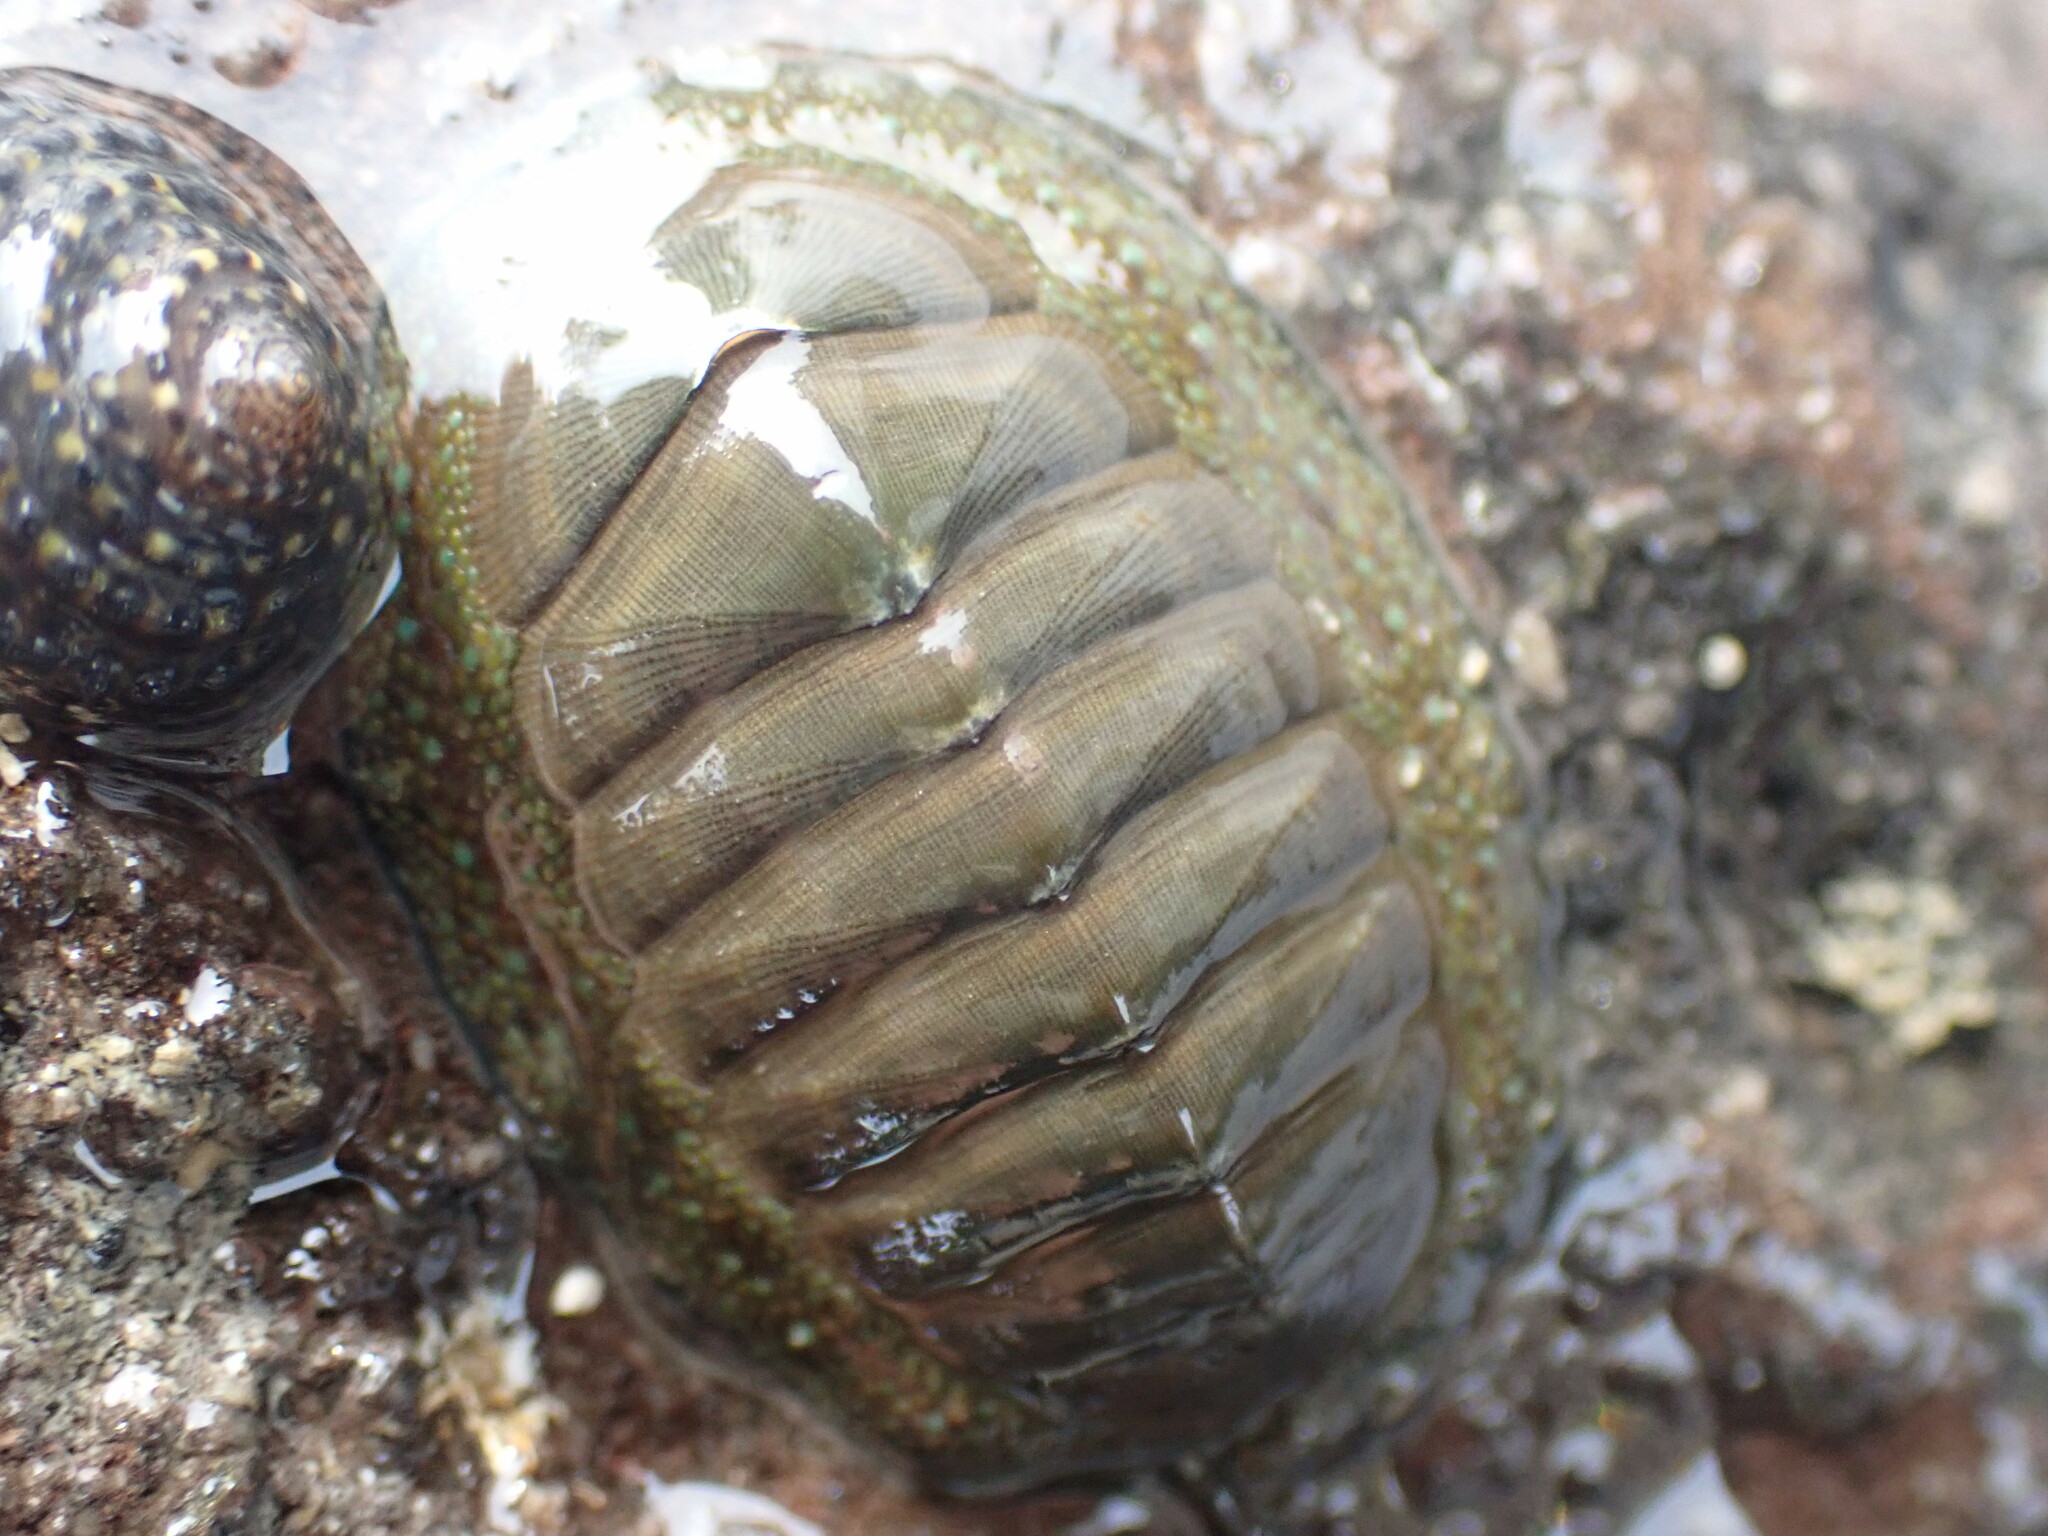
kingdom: Animalia
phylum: Mollusca
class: Polyplacophora
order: Chitonida
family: Chitonidae
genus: Chiton
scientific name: Chiton glaucus
